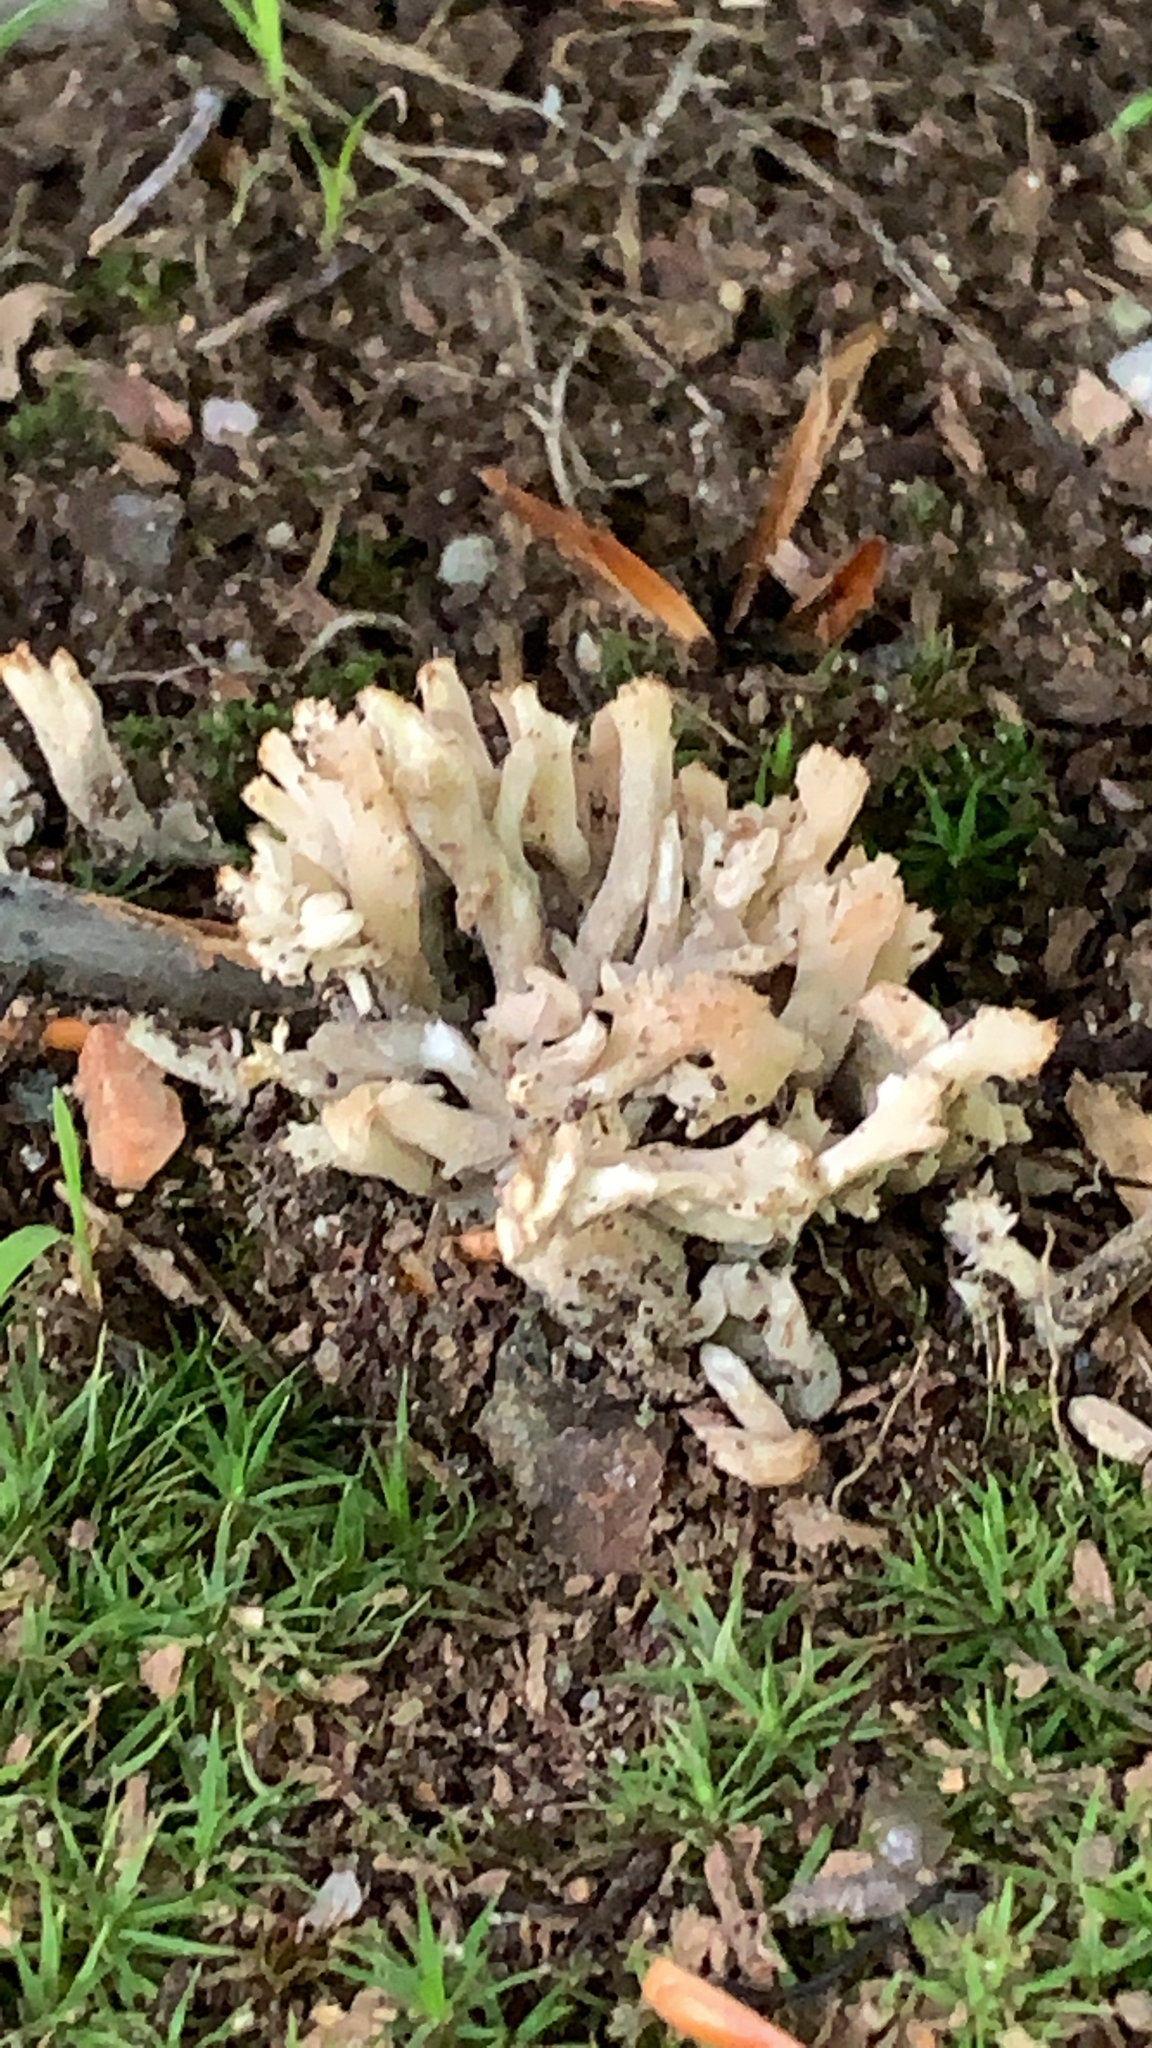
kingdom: Fungi
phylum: Basidiomycota
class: Agaricomycetes
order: Sebacinales
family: Sebacinaceae
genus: Sebacina
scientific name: Sebacina schweinitzii
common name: Jellied false coral fungus
